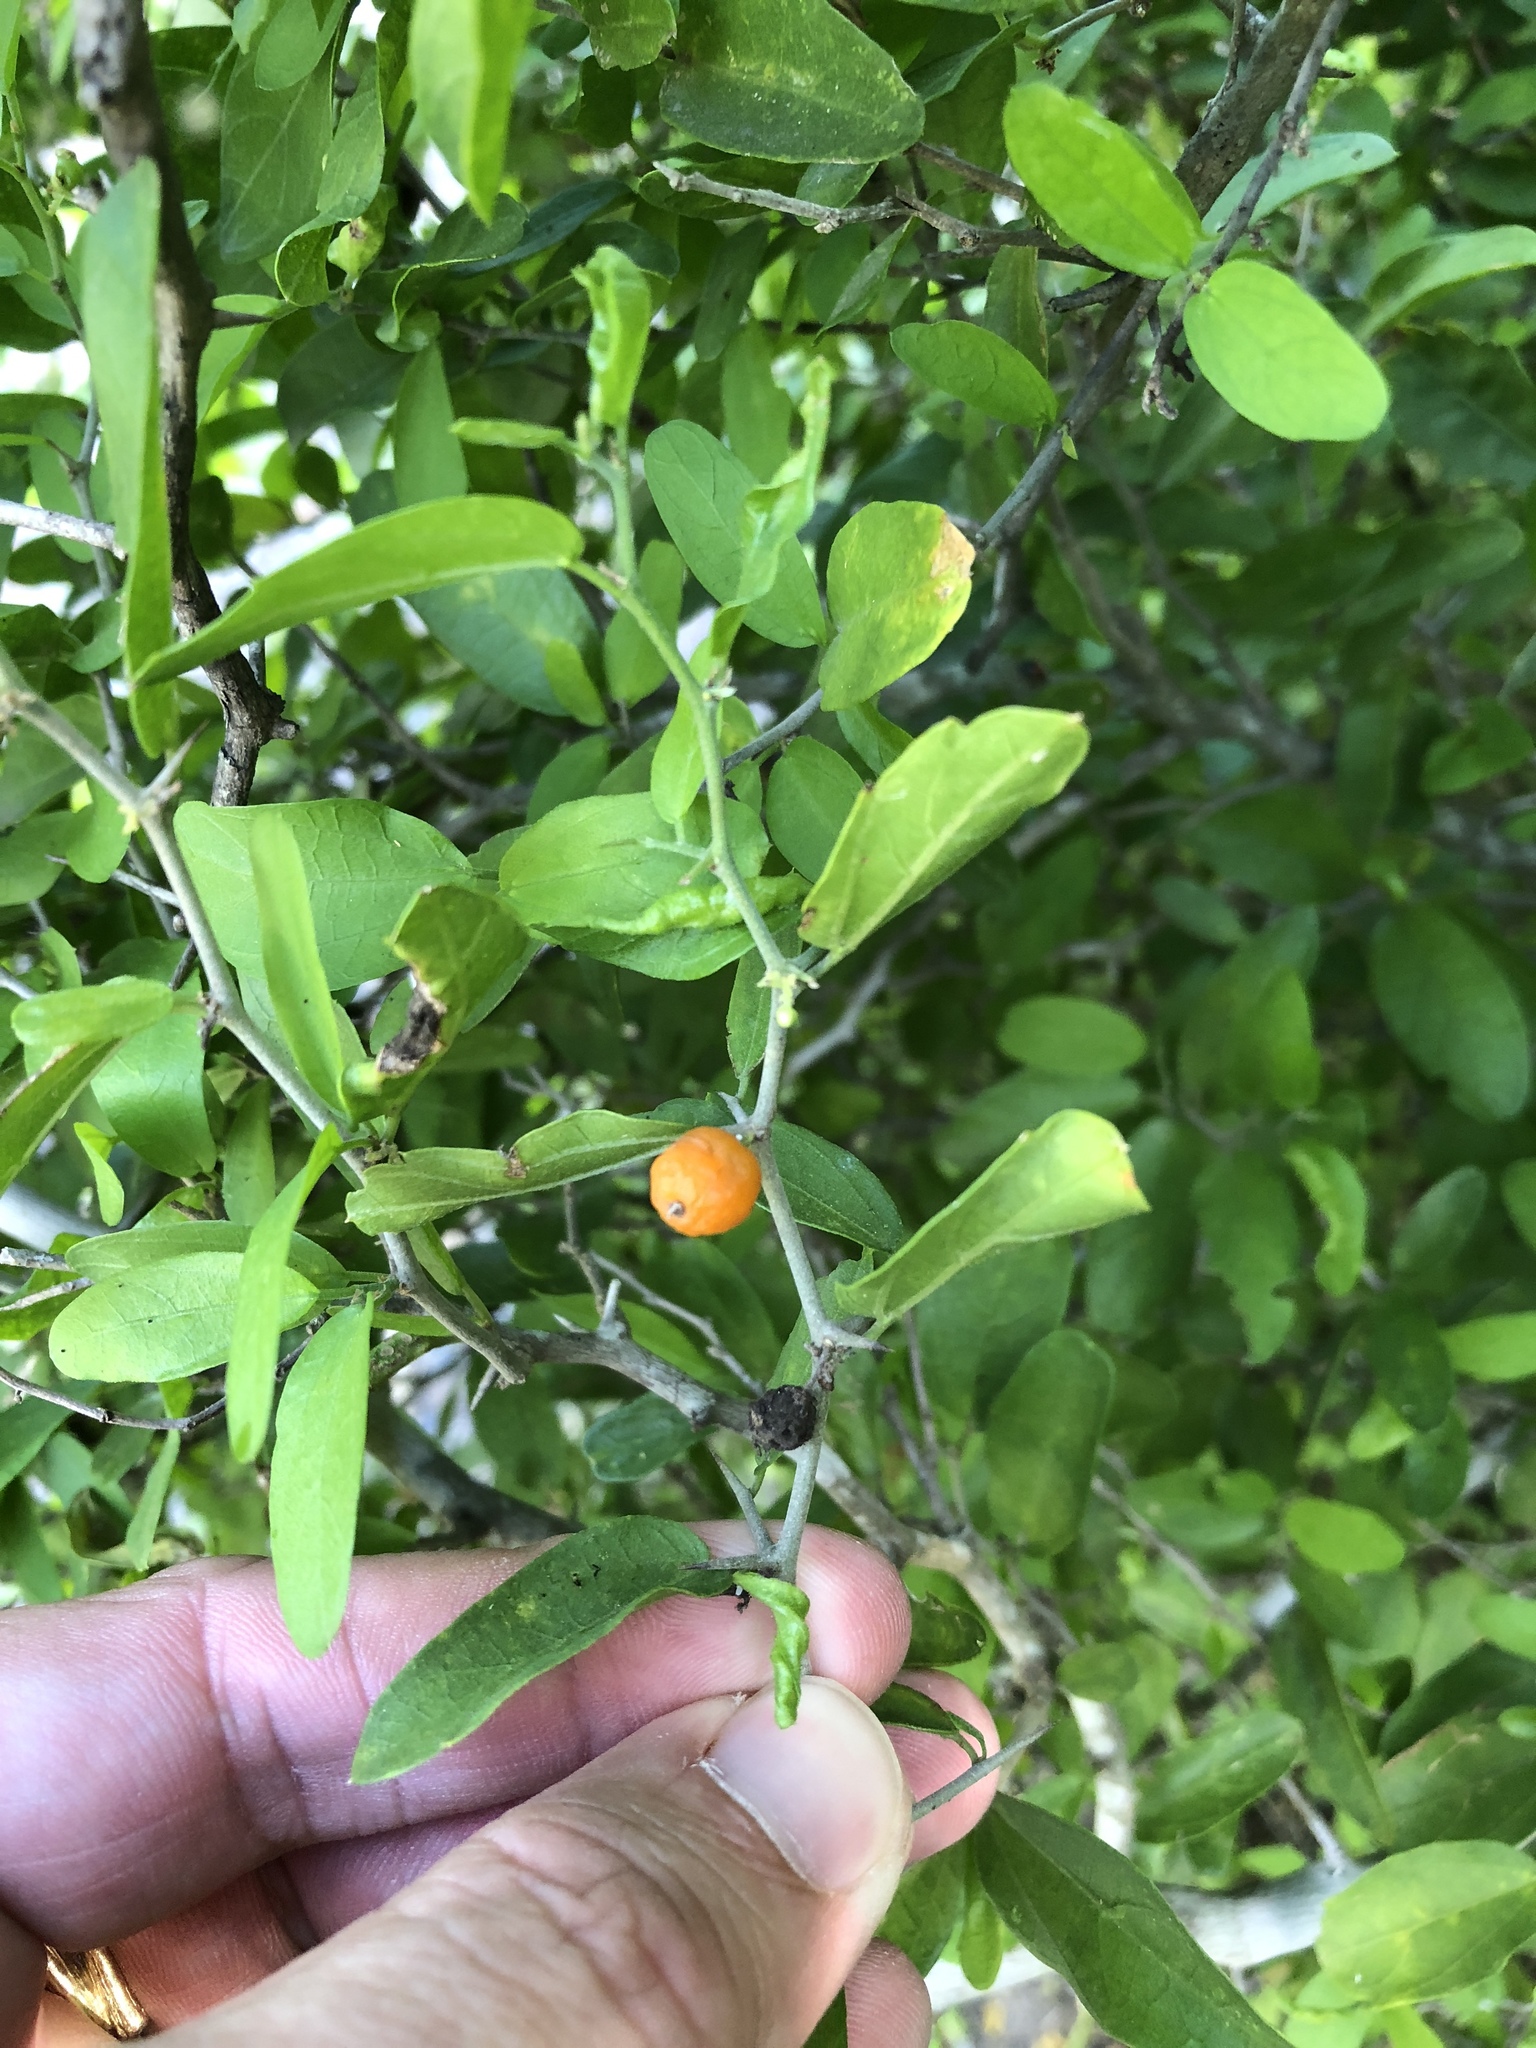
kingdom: Plantae
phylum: Tracheophyta
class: Magnoliopsida
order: Rosales
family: Cannabaceae
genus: Celtis
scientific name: Celtis pallida
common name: Desert hackberry
